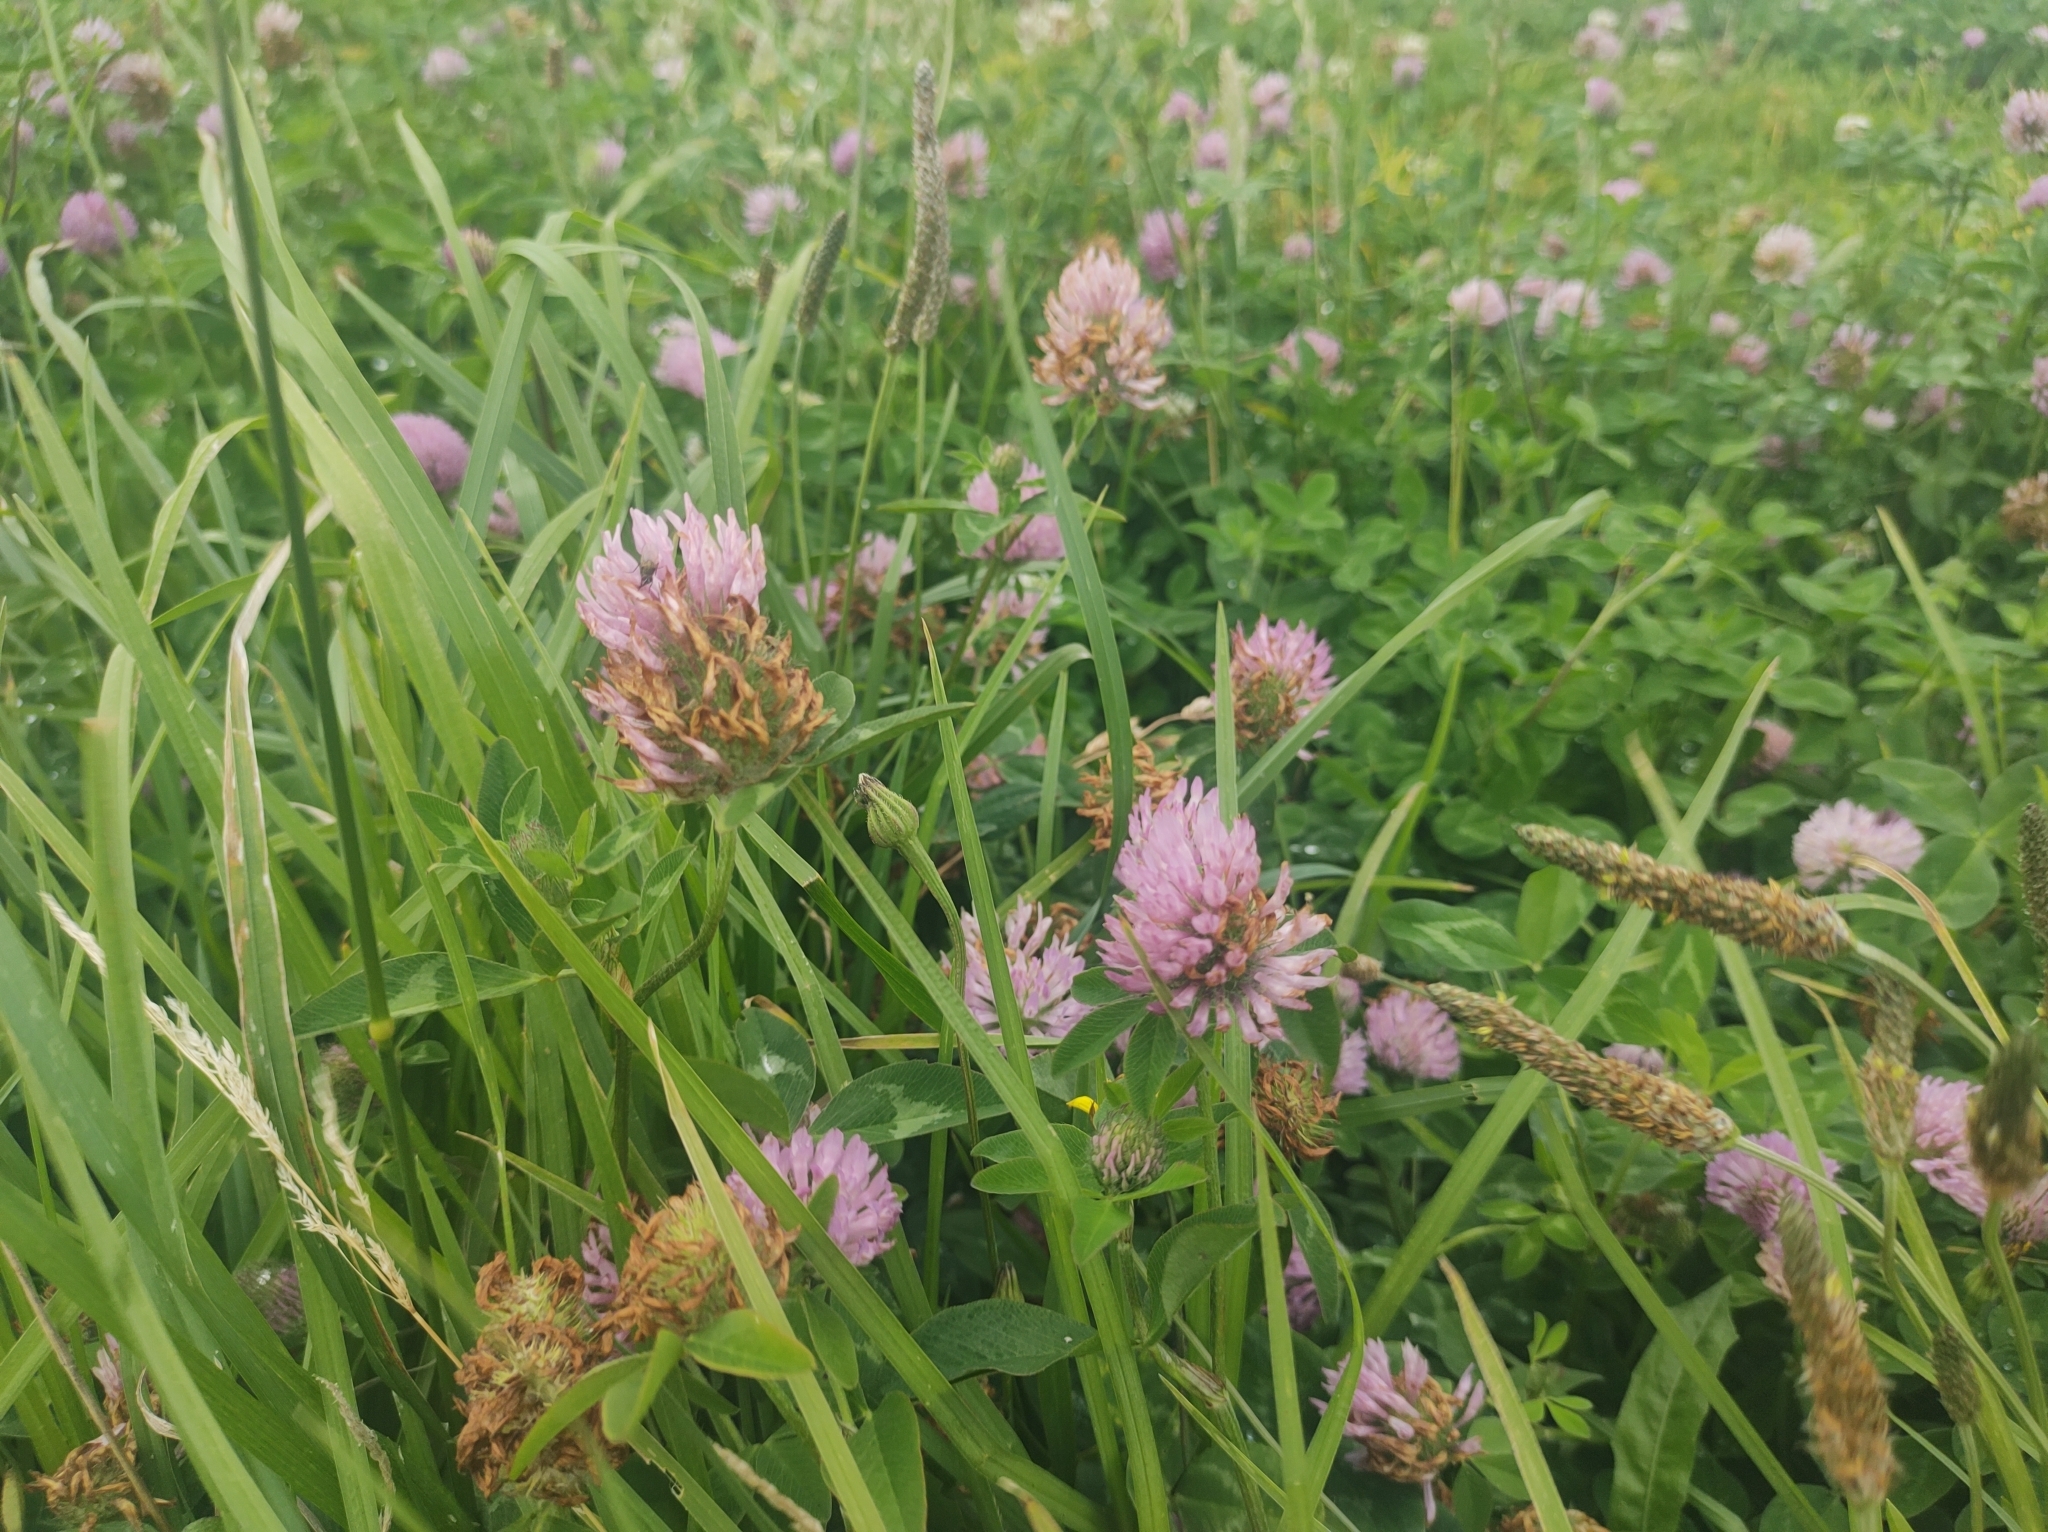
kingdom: Plantae
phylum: Tracheophyta
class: Magnoliopsida
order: Fabales
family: Fabaceae
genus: Trifolium
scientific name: Trifolium pratense
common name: Red clover
